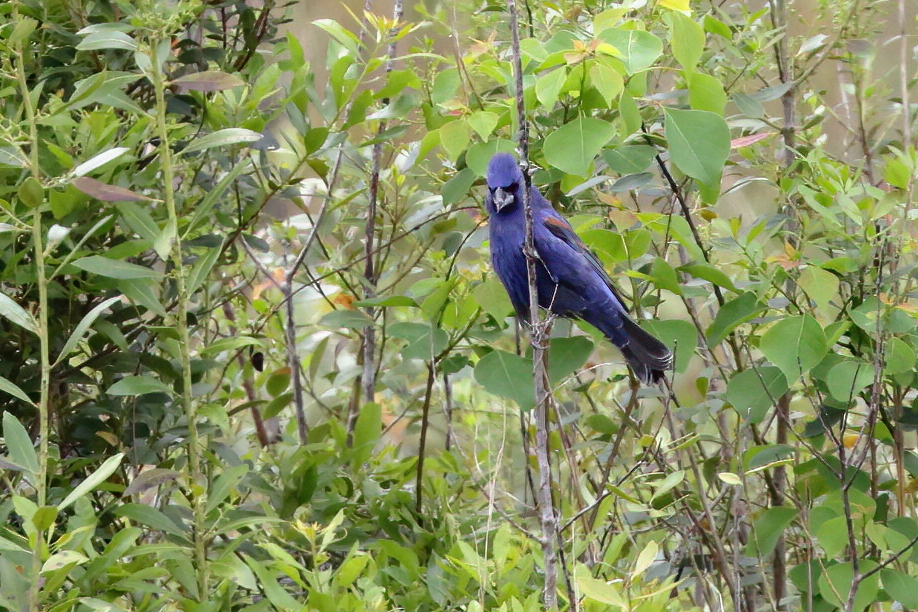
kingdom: Animalia
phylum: Chordata
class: Aves
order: Passeriformes
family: Cardinalidae
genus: Passerina
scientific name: Passerina caerulea
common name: Blue grosbeak
